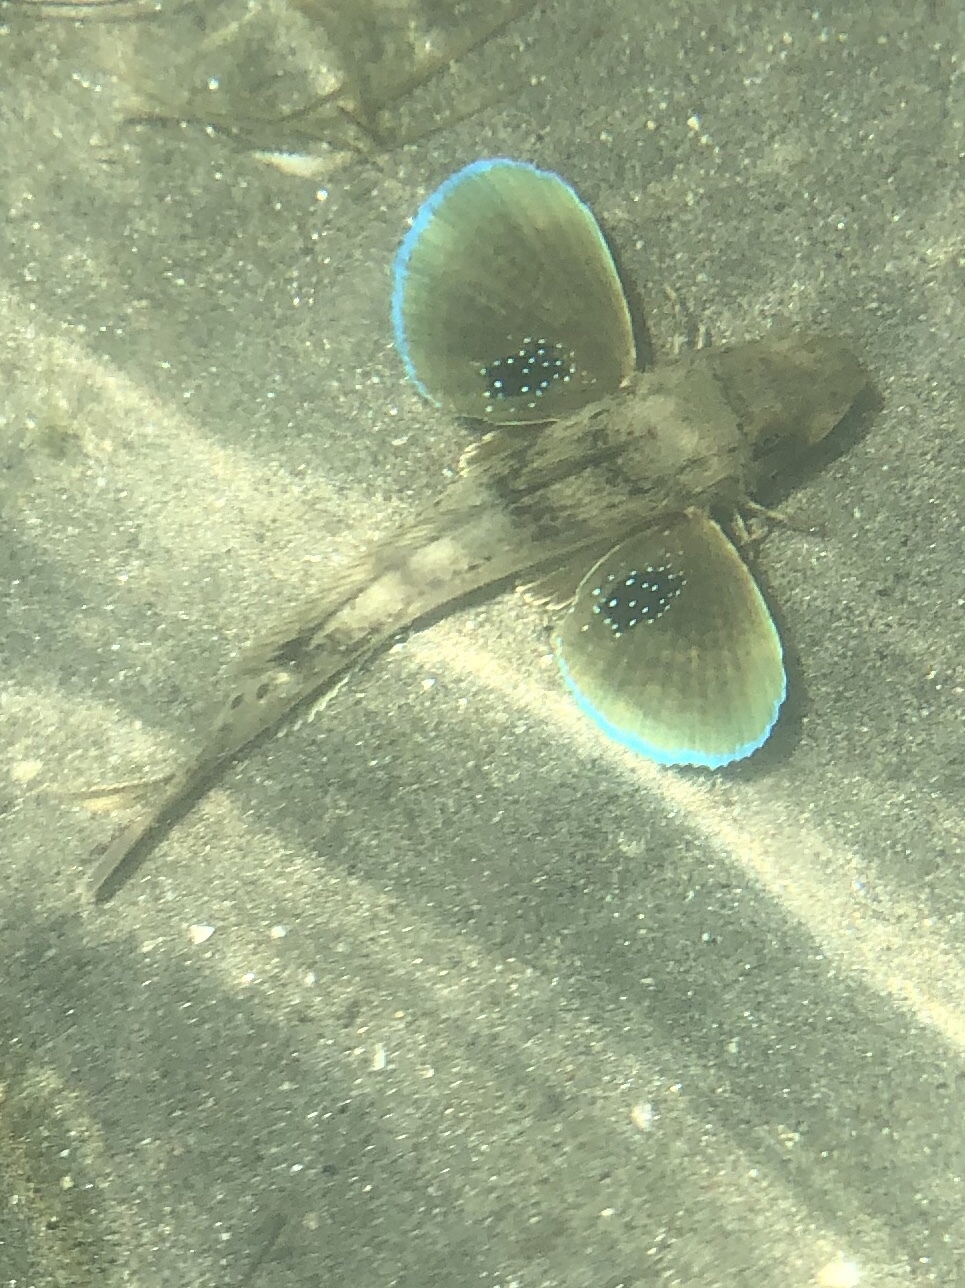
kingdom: Animalia
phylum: Chordata
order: Scorpaeniformes
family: Triglidae
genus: Chelidonichthys
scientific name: Chelidonichthys lucerna
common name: Tub gurnard
